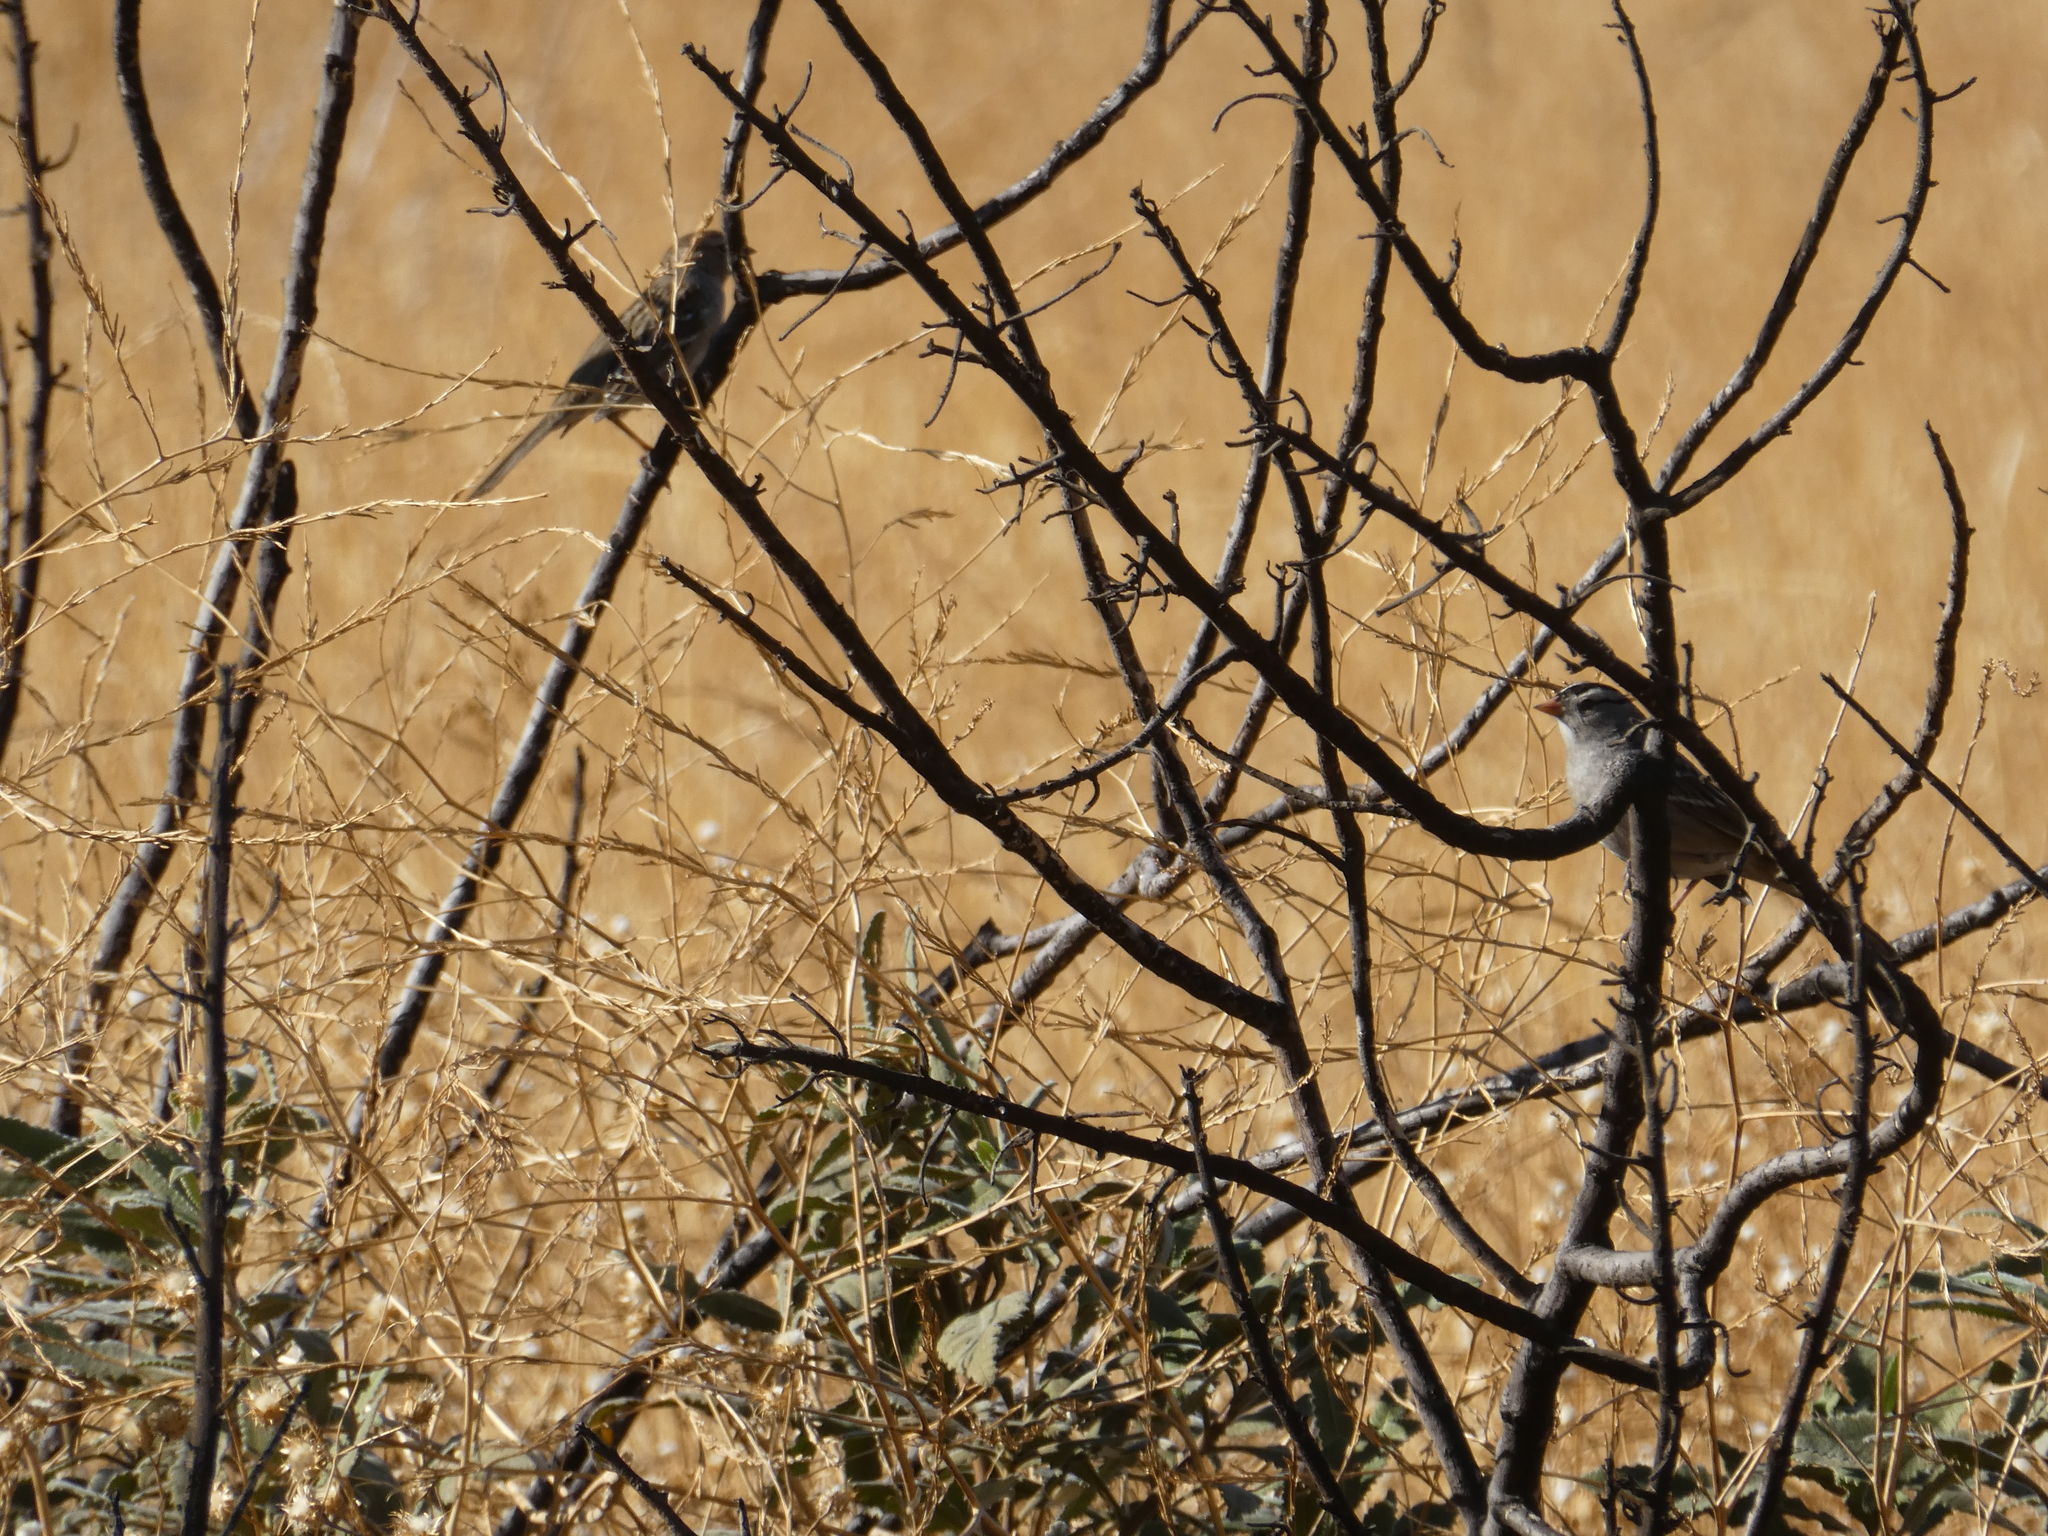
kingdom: Animalia
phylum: Chordata
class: Aves
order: Passeriformes
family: Passerellidae
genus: Zonotrichia
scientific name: Zonotrichia leucophrys
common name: White-crowned sparrow
